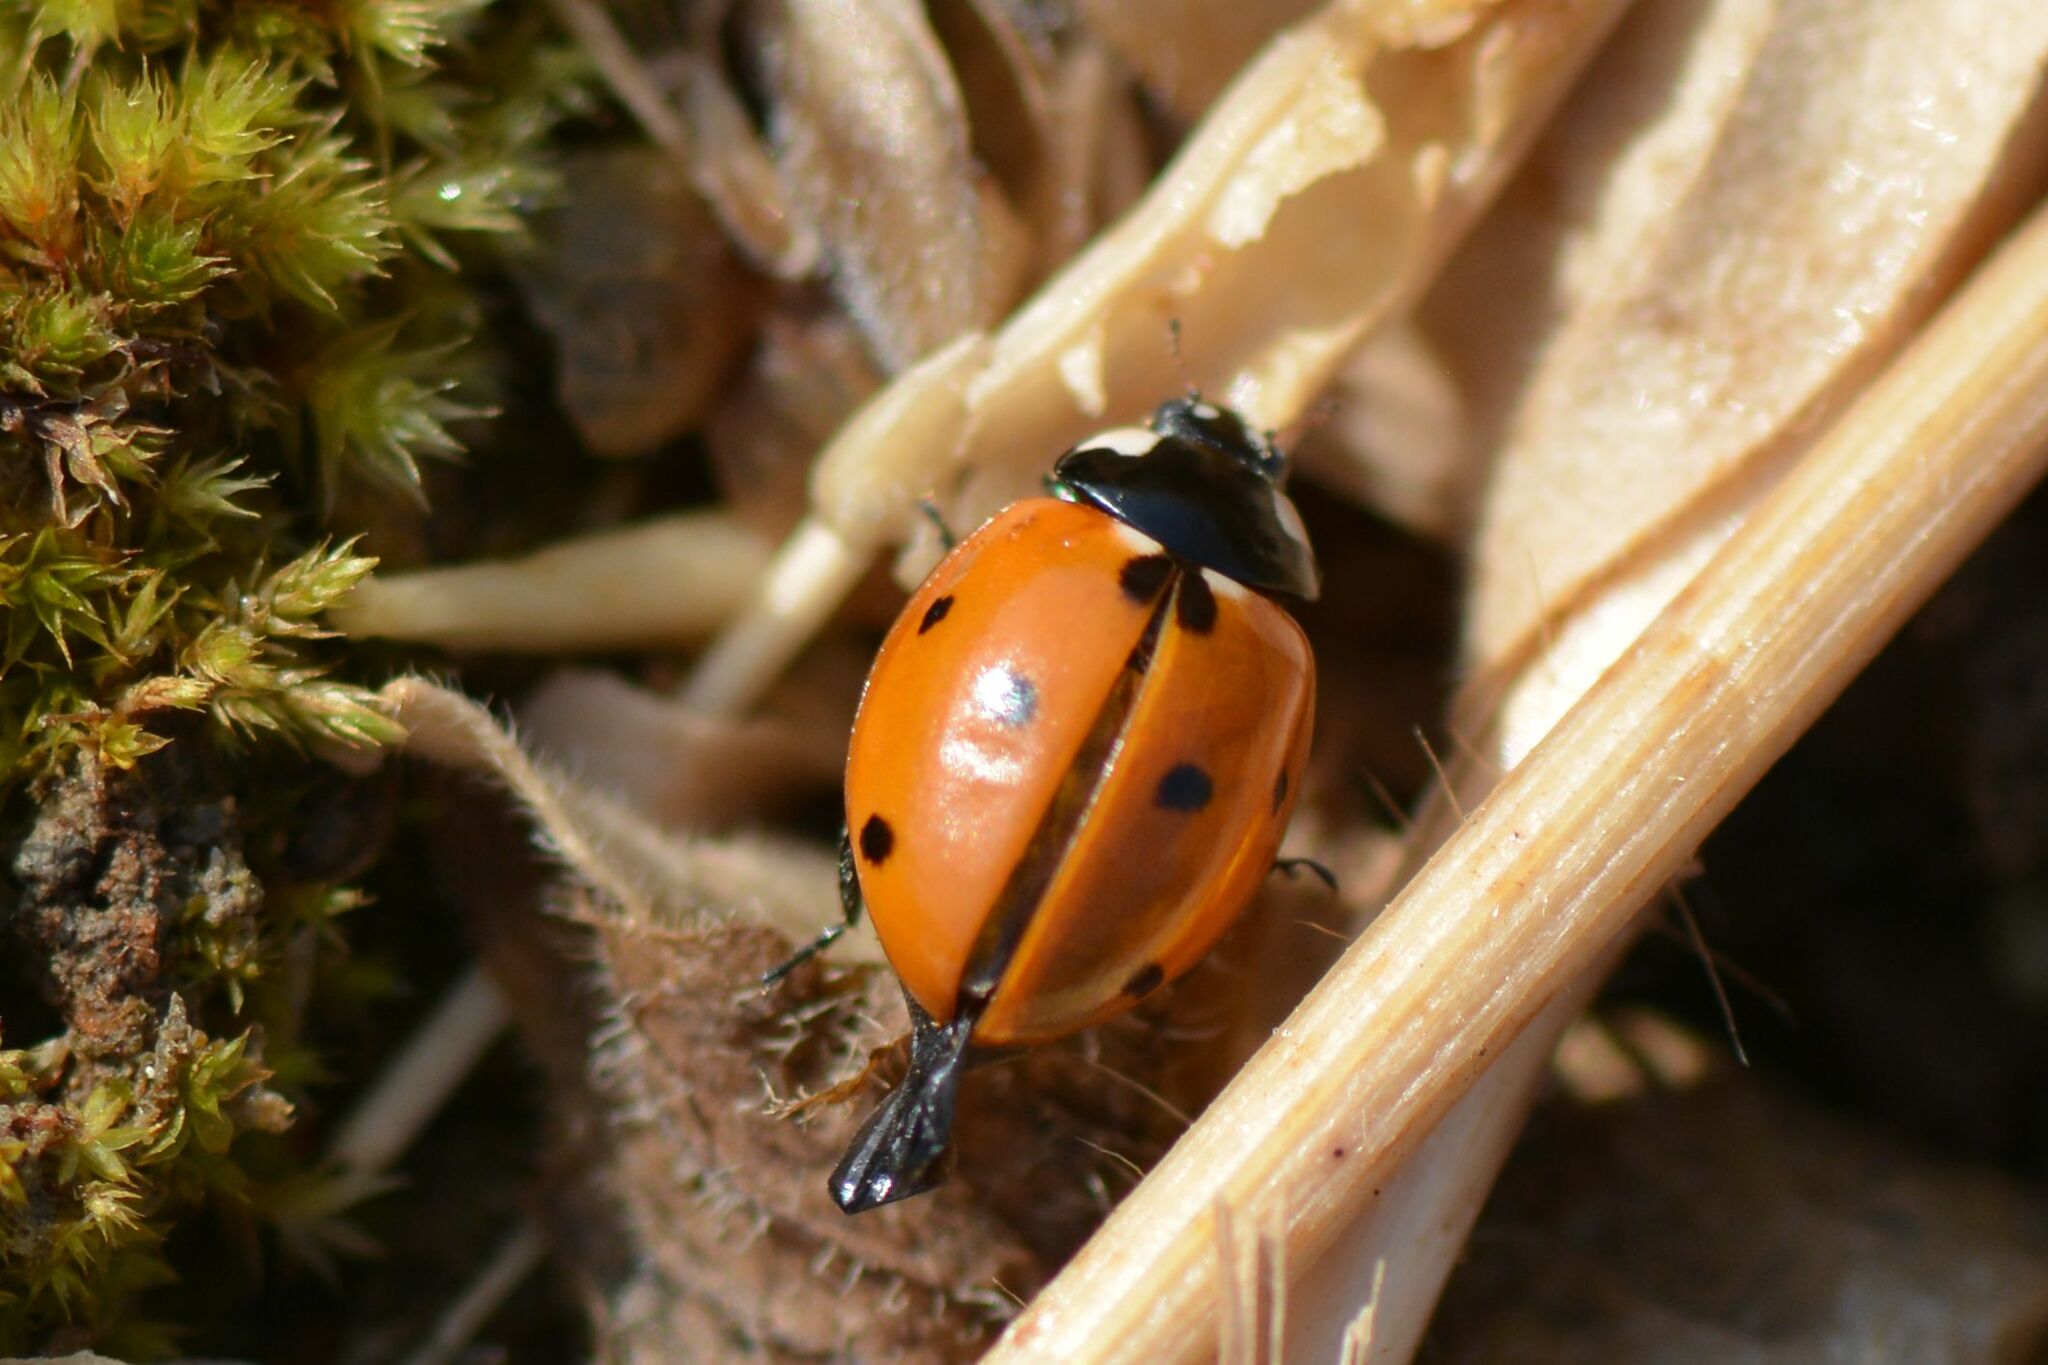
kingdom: Animalia
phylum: Arthropoda
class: Insecta
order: Coleoptera
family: Coccinellidae
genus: Coccinella
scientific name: Coccinella septempunctata
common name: Sevenspotted lady beetle
